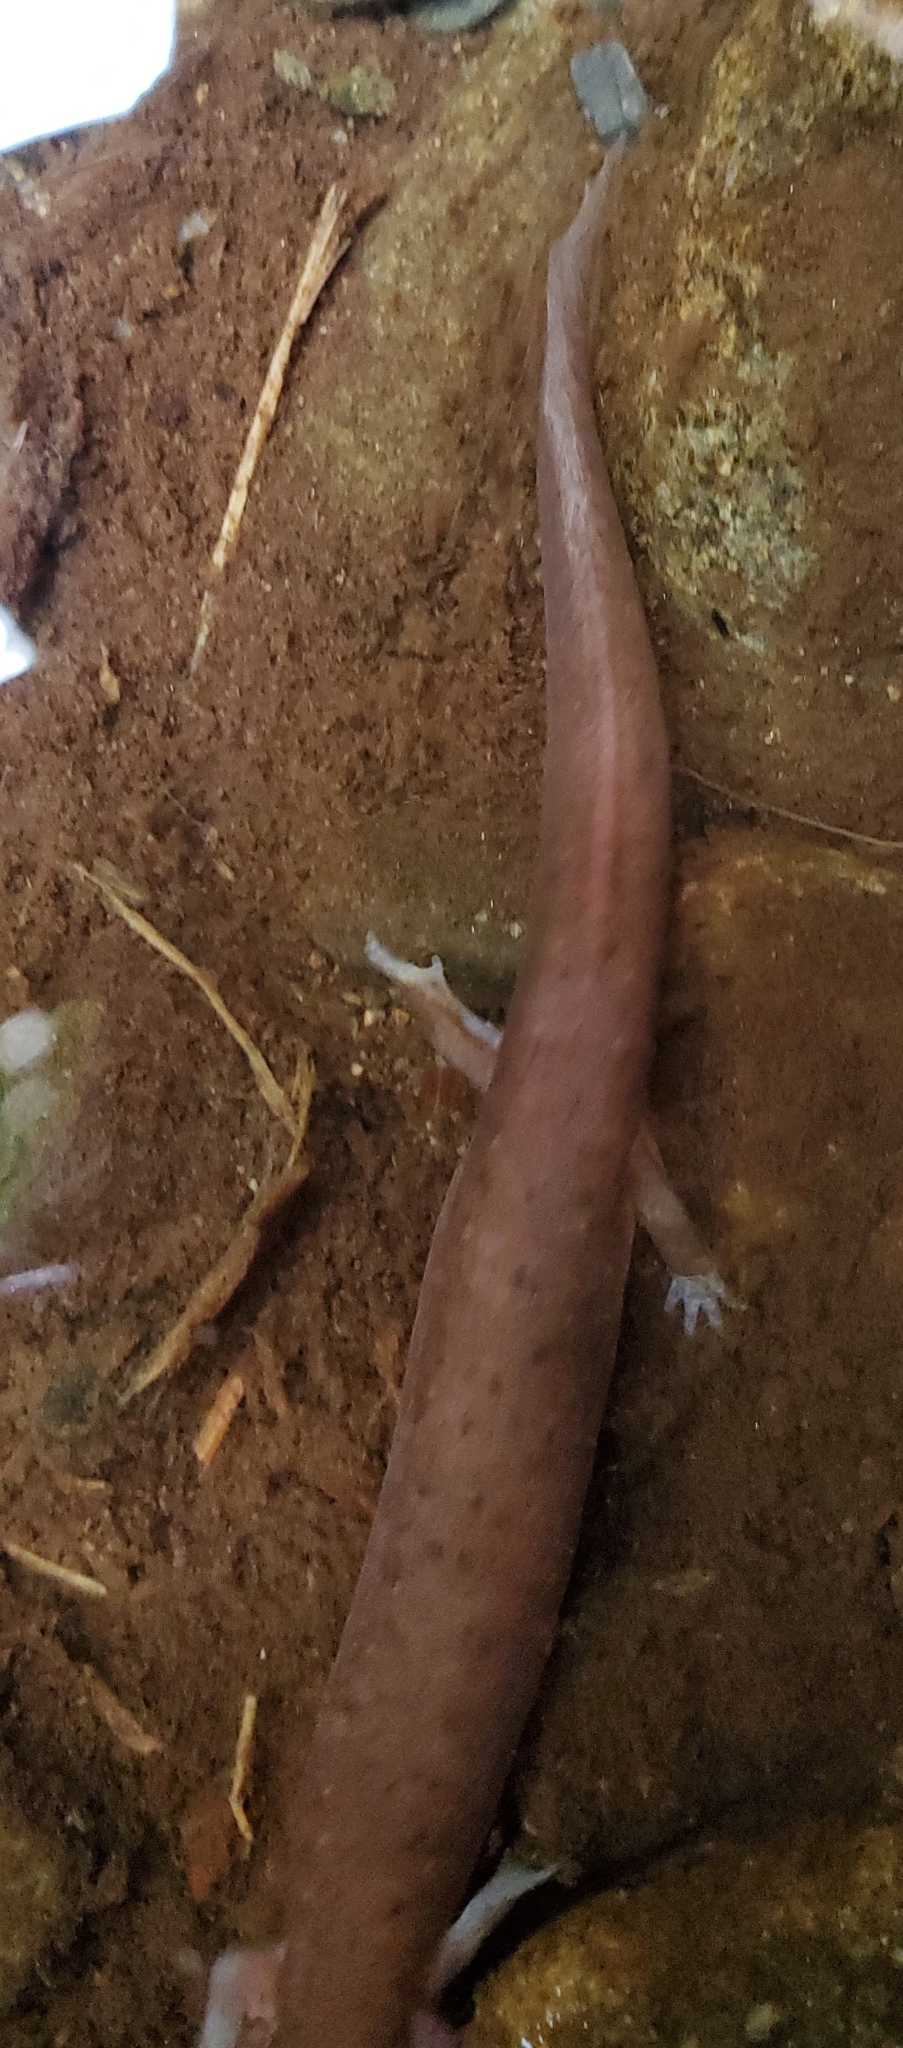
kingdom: Animalia
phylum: Chordata
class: Amphibia
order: Caudata
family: Plethodontidae
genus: Gyrinophilus
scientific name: Gyrinophilus porphyriticus
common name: Spring salamander
